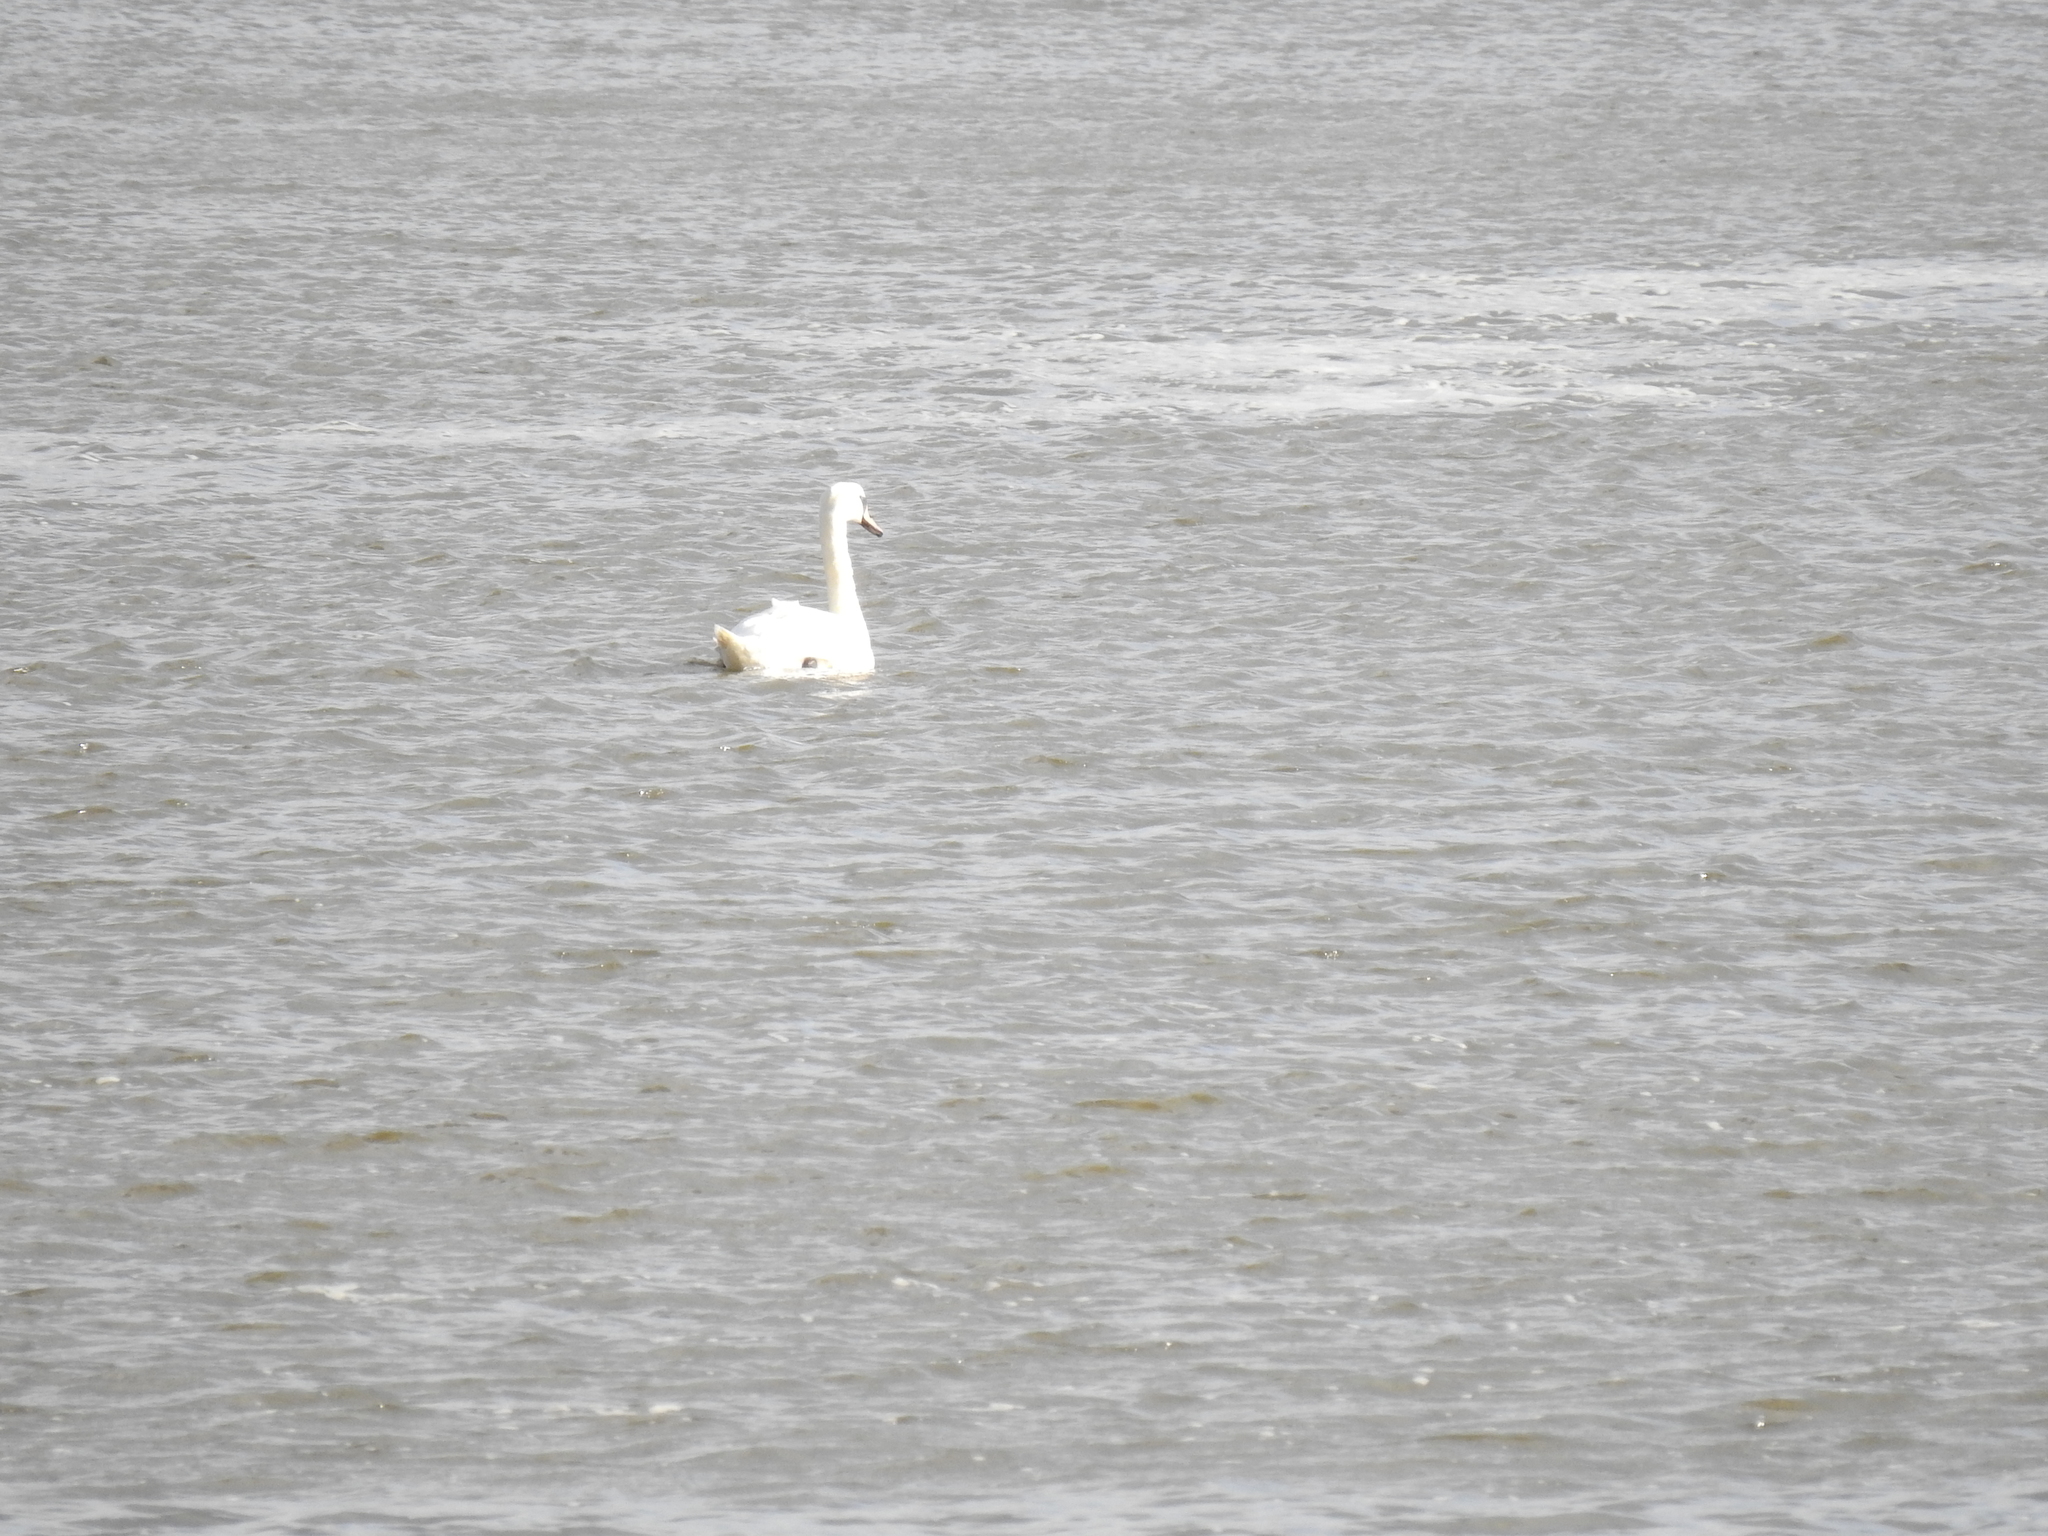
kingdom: Animalia
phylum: Chordata
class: Aves
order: Anseriformes
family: Anatidae
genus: Cygnus
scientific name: Cygnus olor
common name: Mute swan
